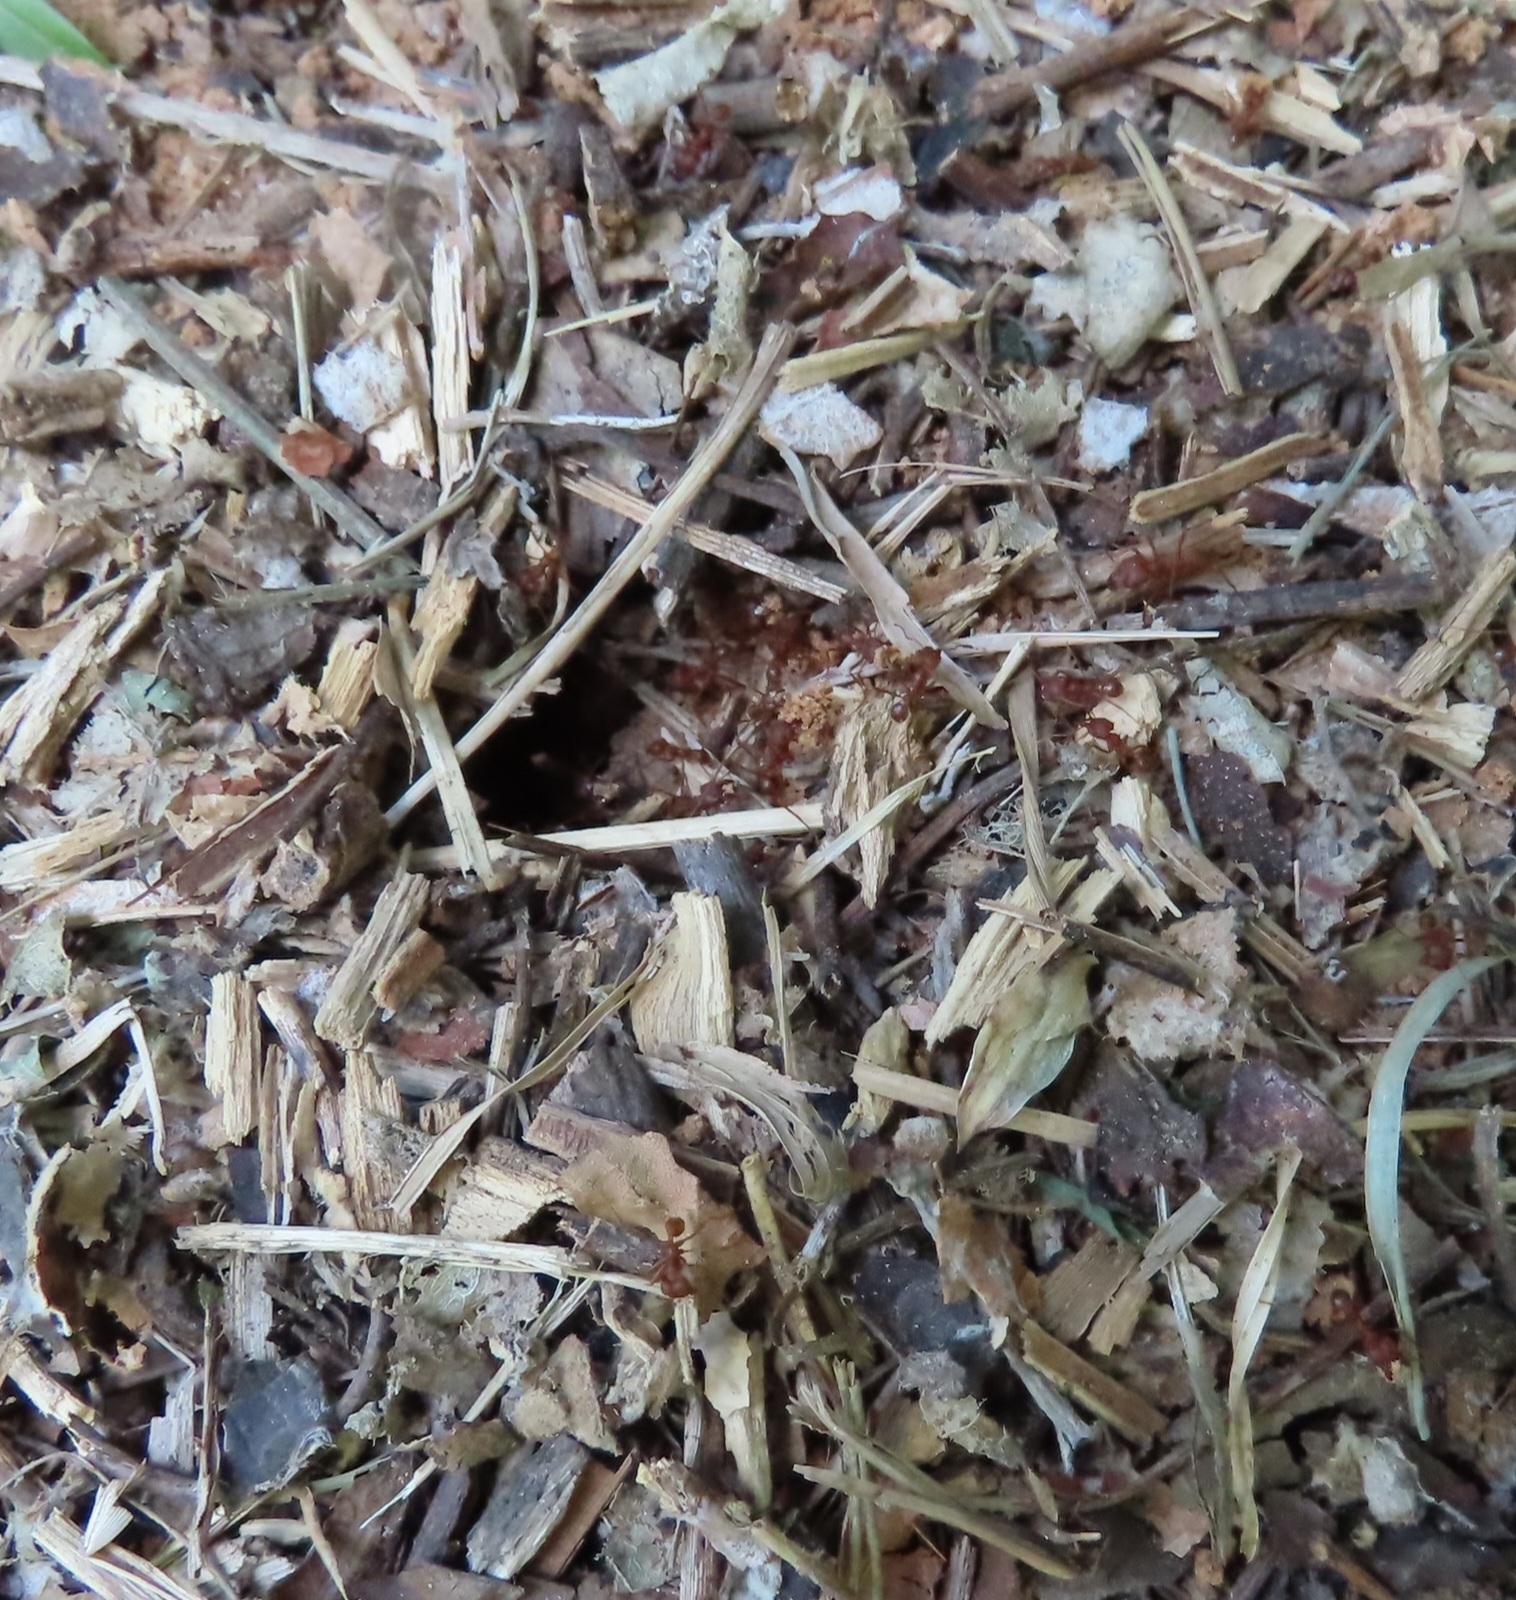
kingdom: Animalia
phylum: Arthropoda
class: Insecta
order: Hymenoptera
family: Formicidae
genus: Atta
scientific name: Atta texana
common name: Texas leafcutting ant
